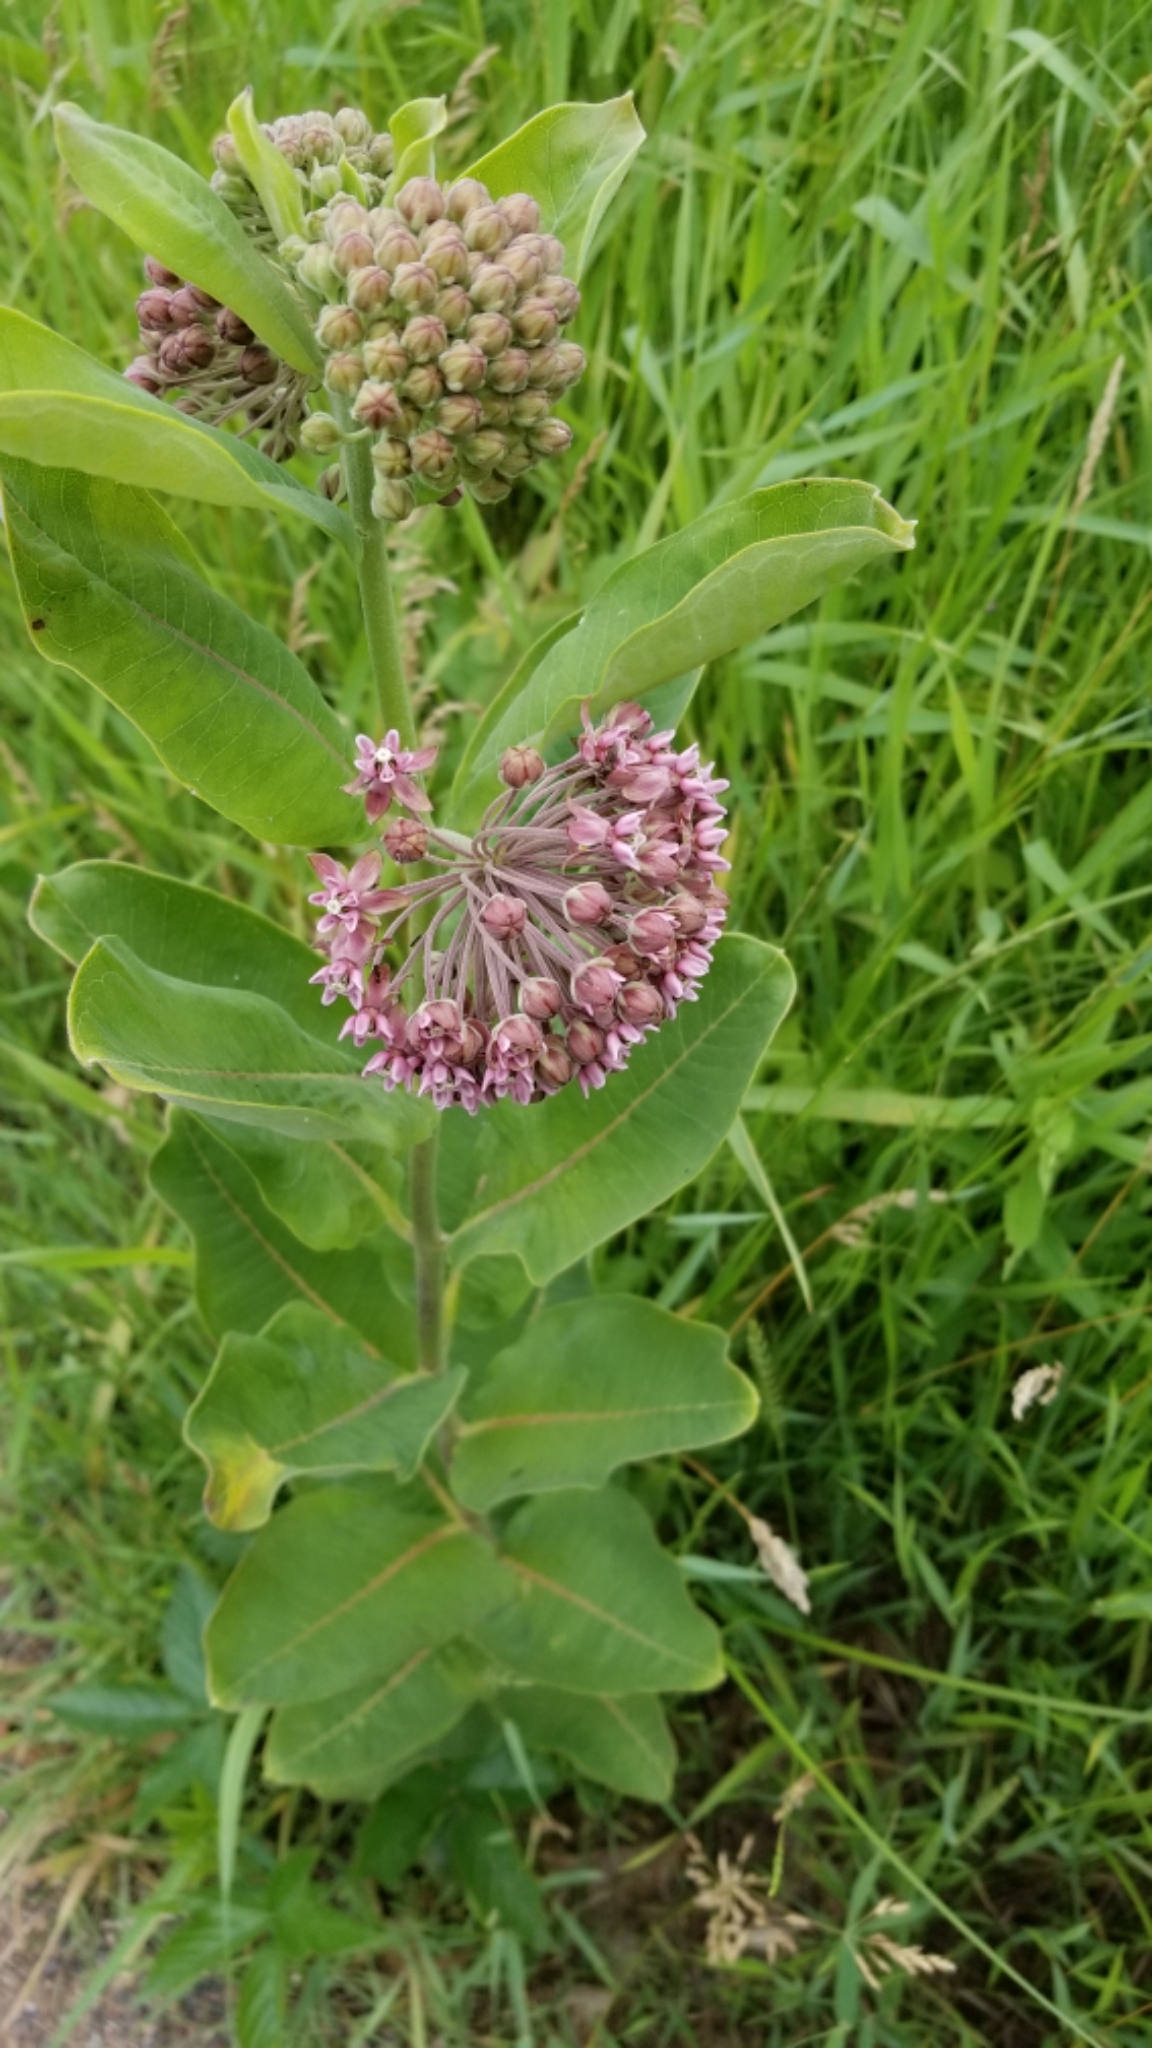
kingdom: Plantae
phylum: Tracheophyta
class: Magnoliopsida
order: Gentianales
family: Apocynaceae
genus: Asclepias
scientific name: Asclepias syriaca
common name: Common milkweed
